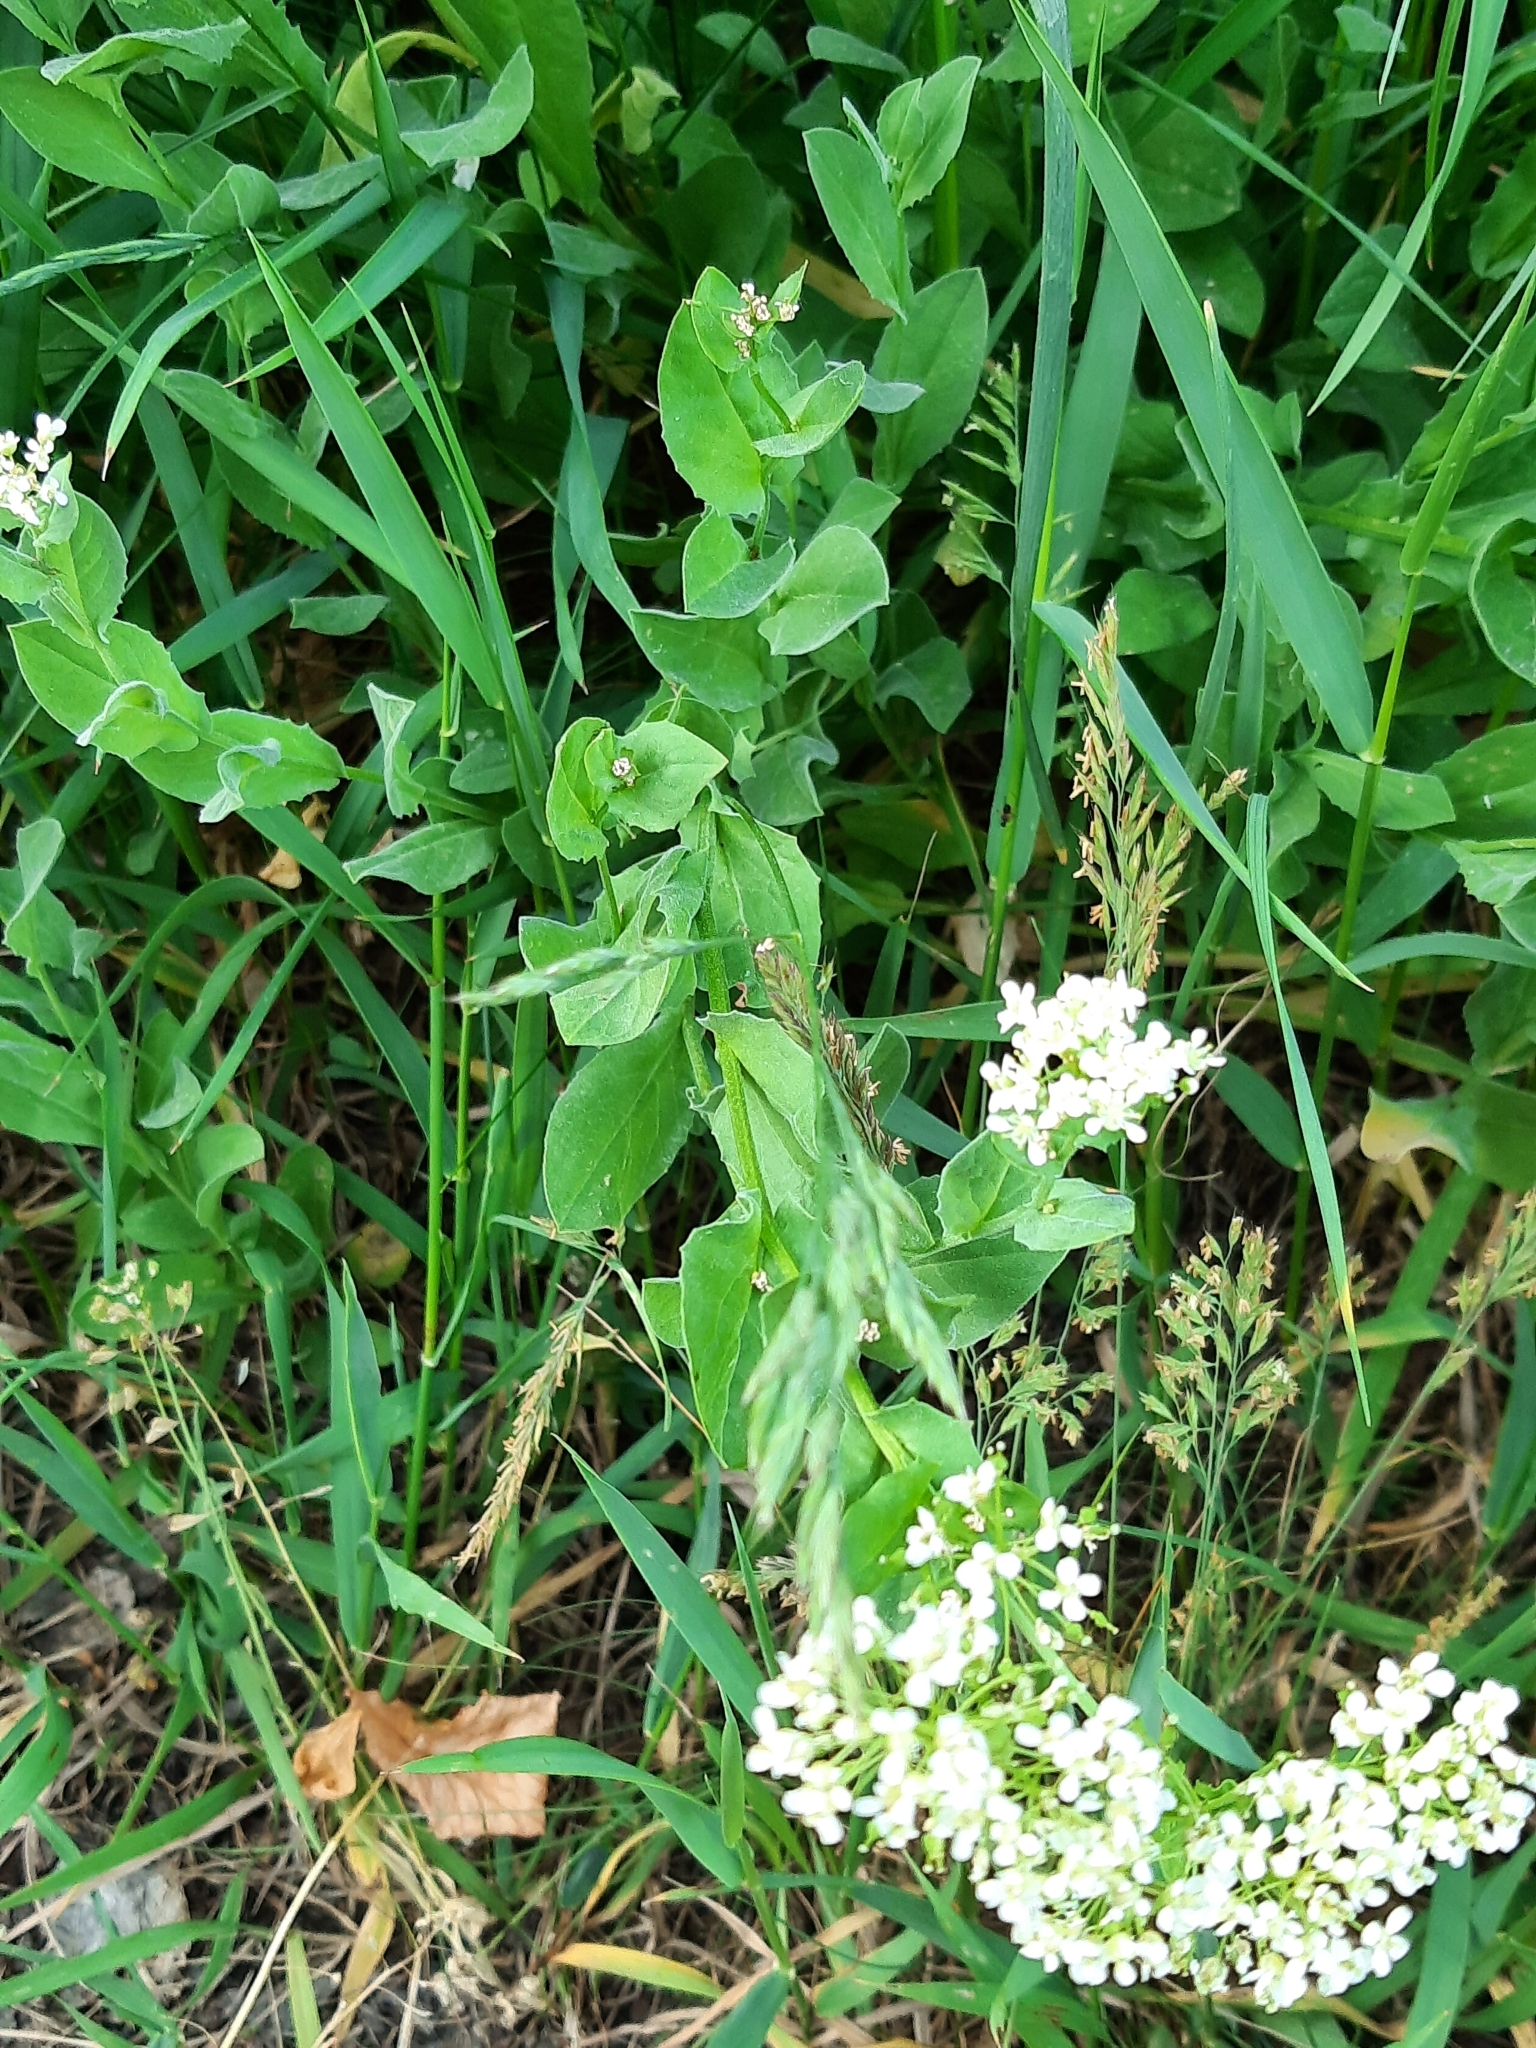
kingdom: Animalia
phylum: Arthropoda
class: Insecta
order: Coleoptera
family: Curculionidae
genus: Ceutorhynchus
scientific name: Ceutorhynchus
